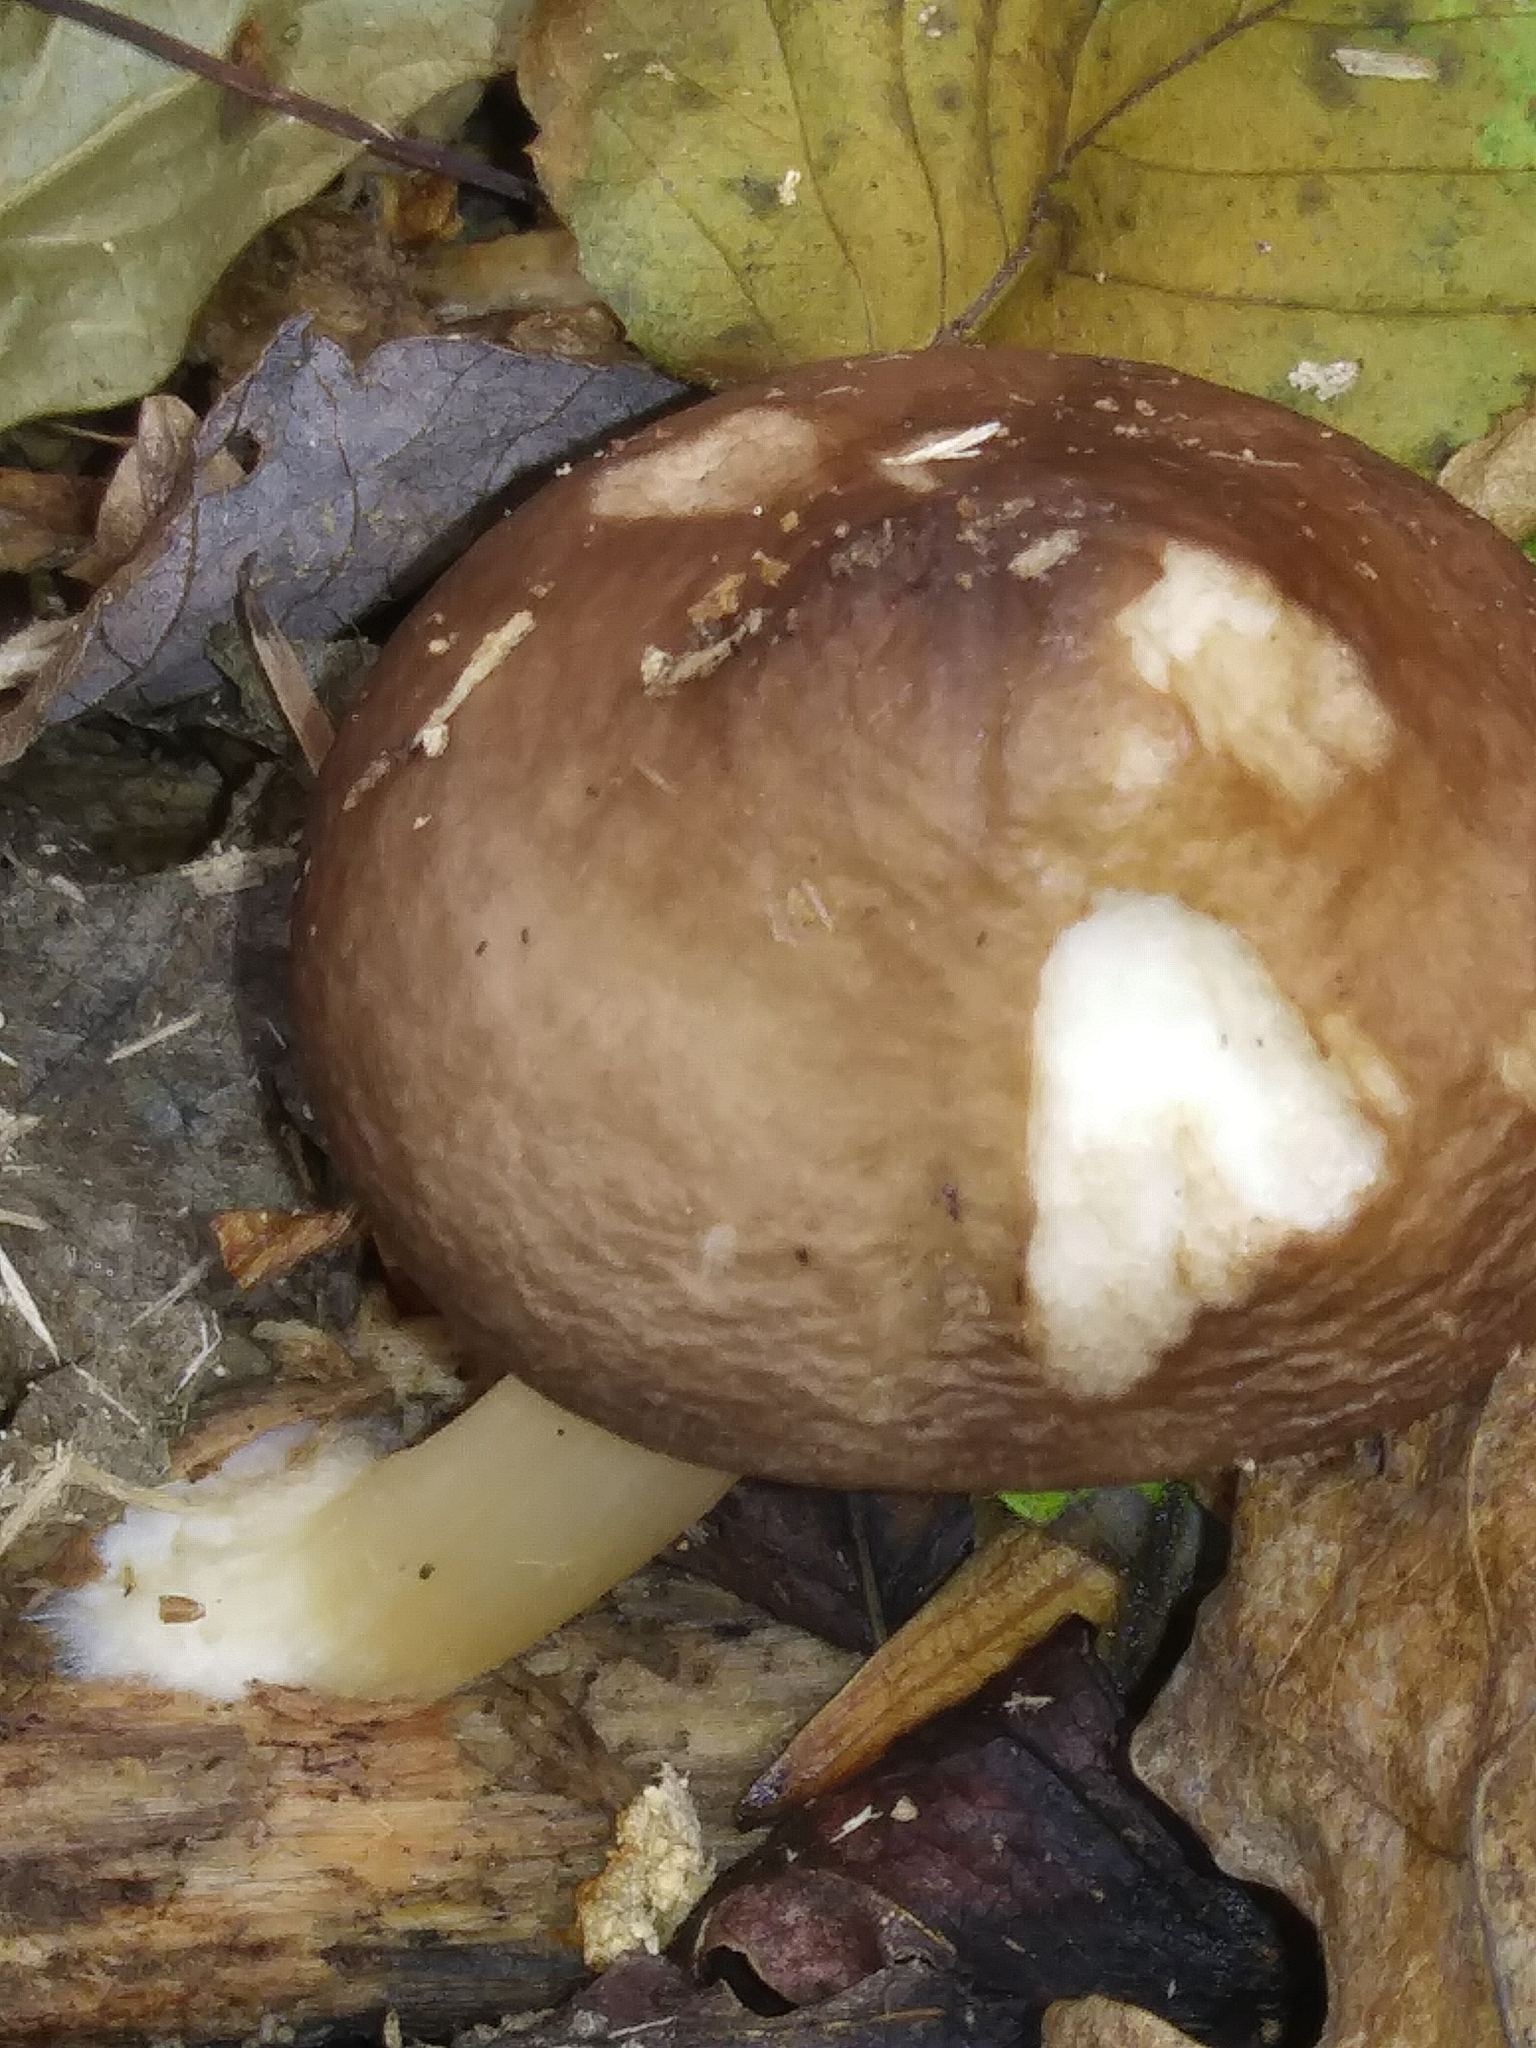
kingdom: Fungi
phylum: Basidiomycota
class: Agaricomycetes
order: Agaricales
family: Pluteaceae
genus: Pluteus
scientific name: Pluteus cervinus
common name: Deer shield
